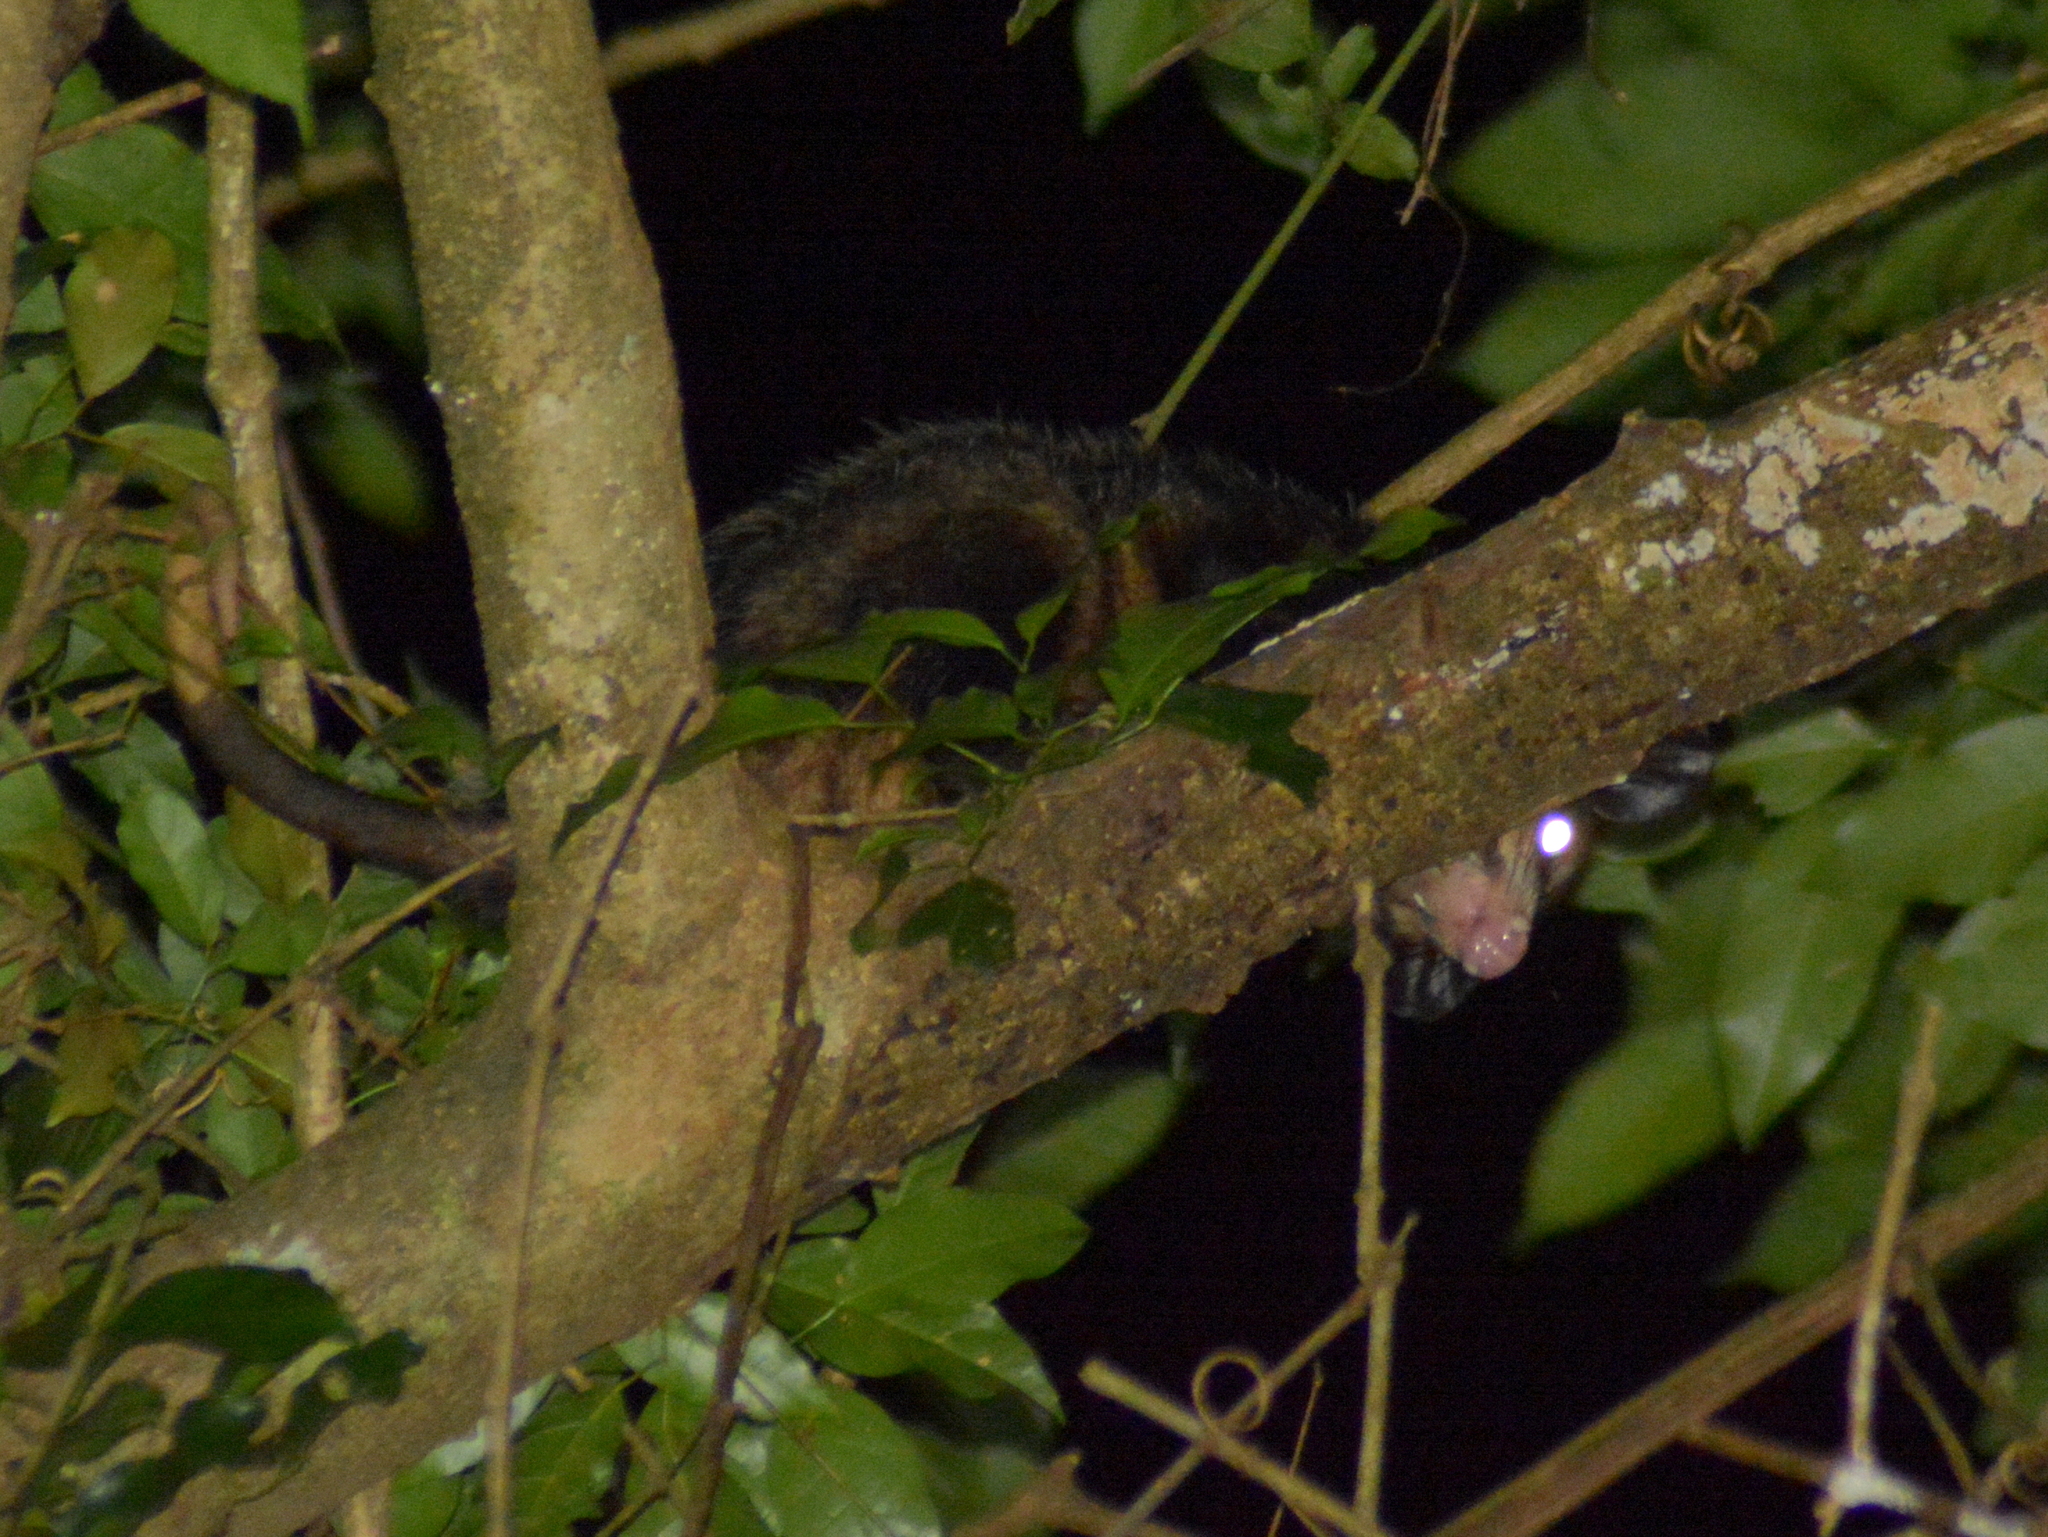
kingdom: Animalia
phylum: Chordata
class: Mammalia
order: Didelphimorphia
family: Didelphidae
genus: Didelphis
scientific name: Didelphis aurita
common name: Big-eared opossum
